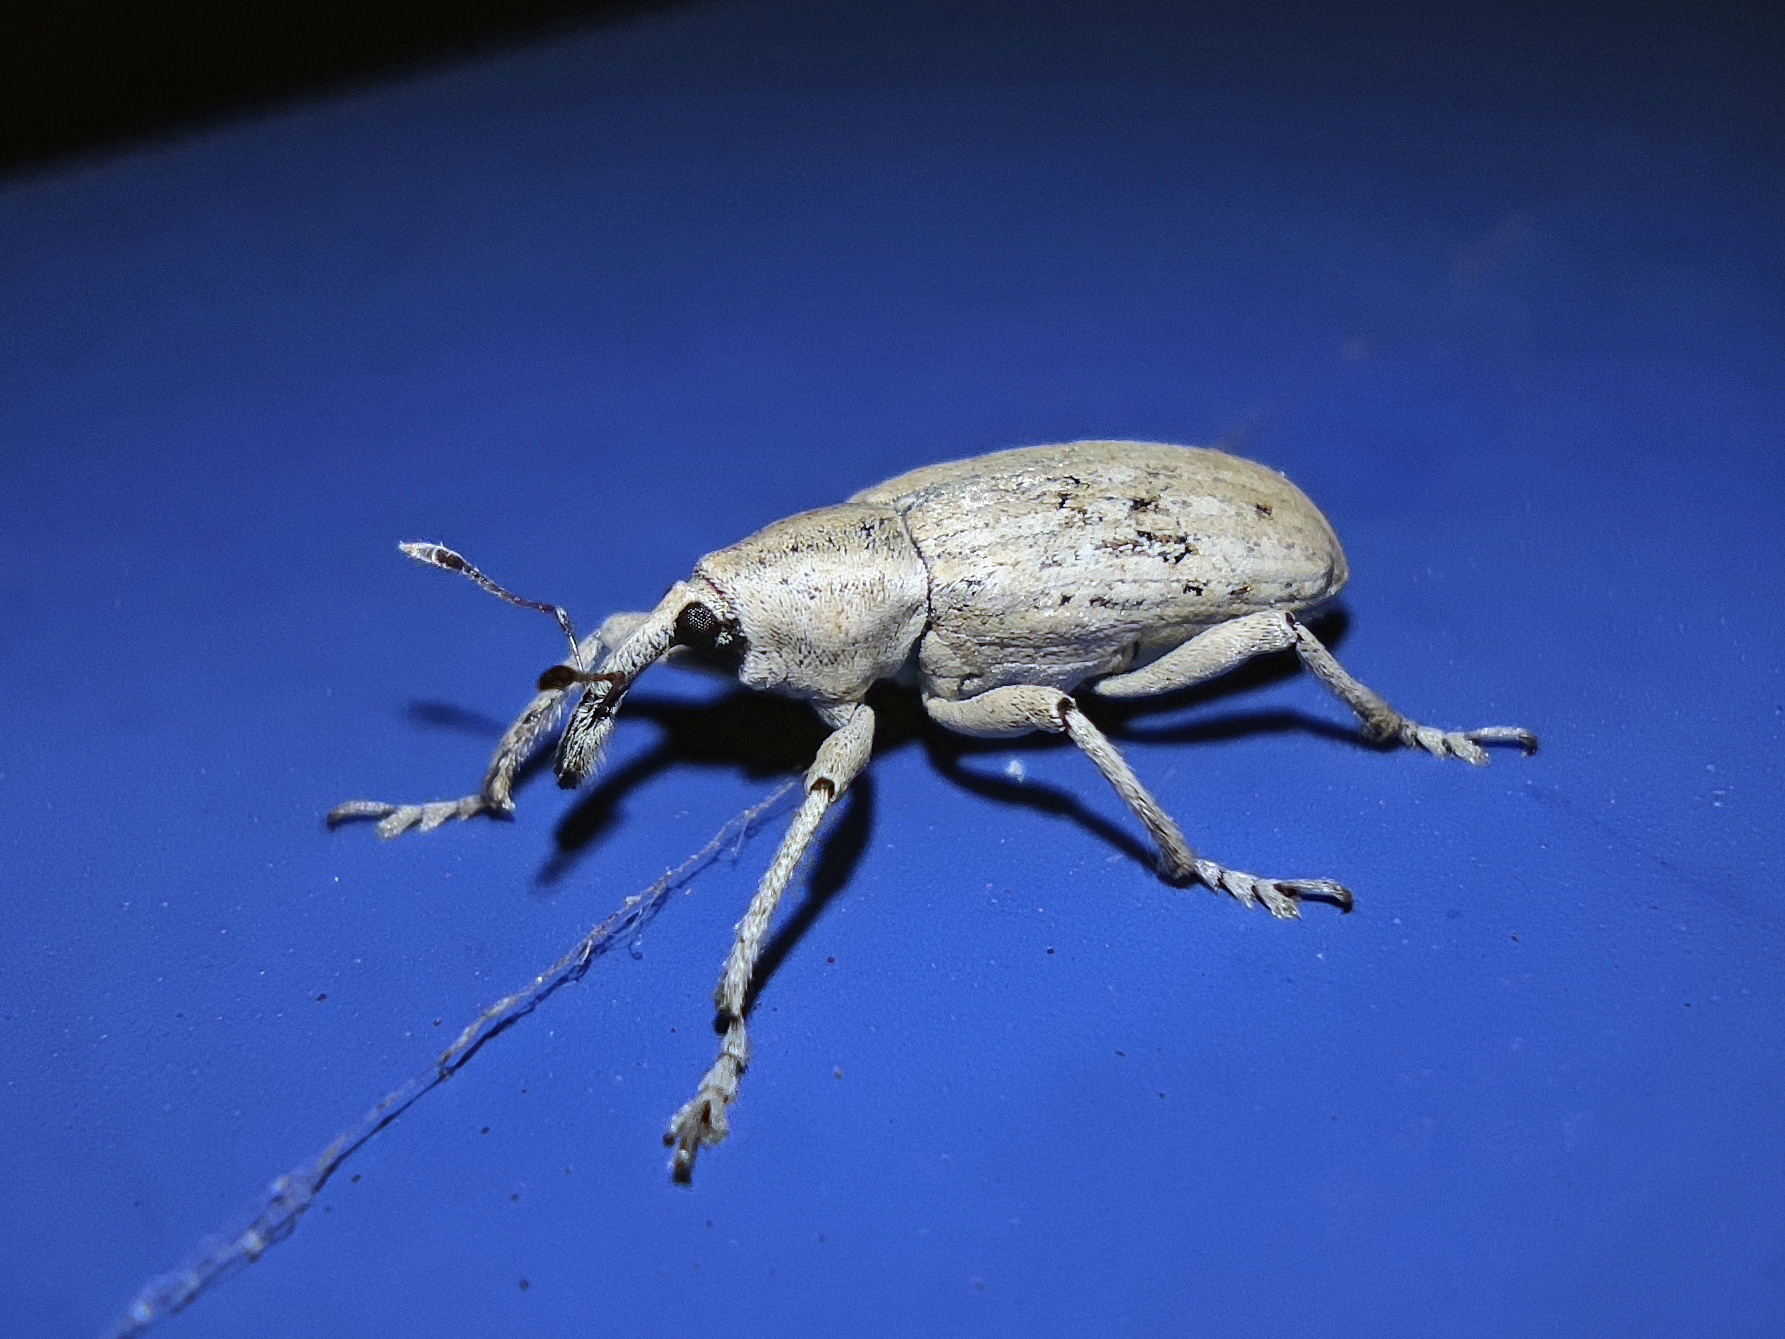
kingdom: Animalia
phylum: Arthropoda
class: Insecta
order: Coleoptera
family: Brachyceridae
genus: Arthrostenus
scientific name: Arthrostenus fullo
